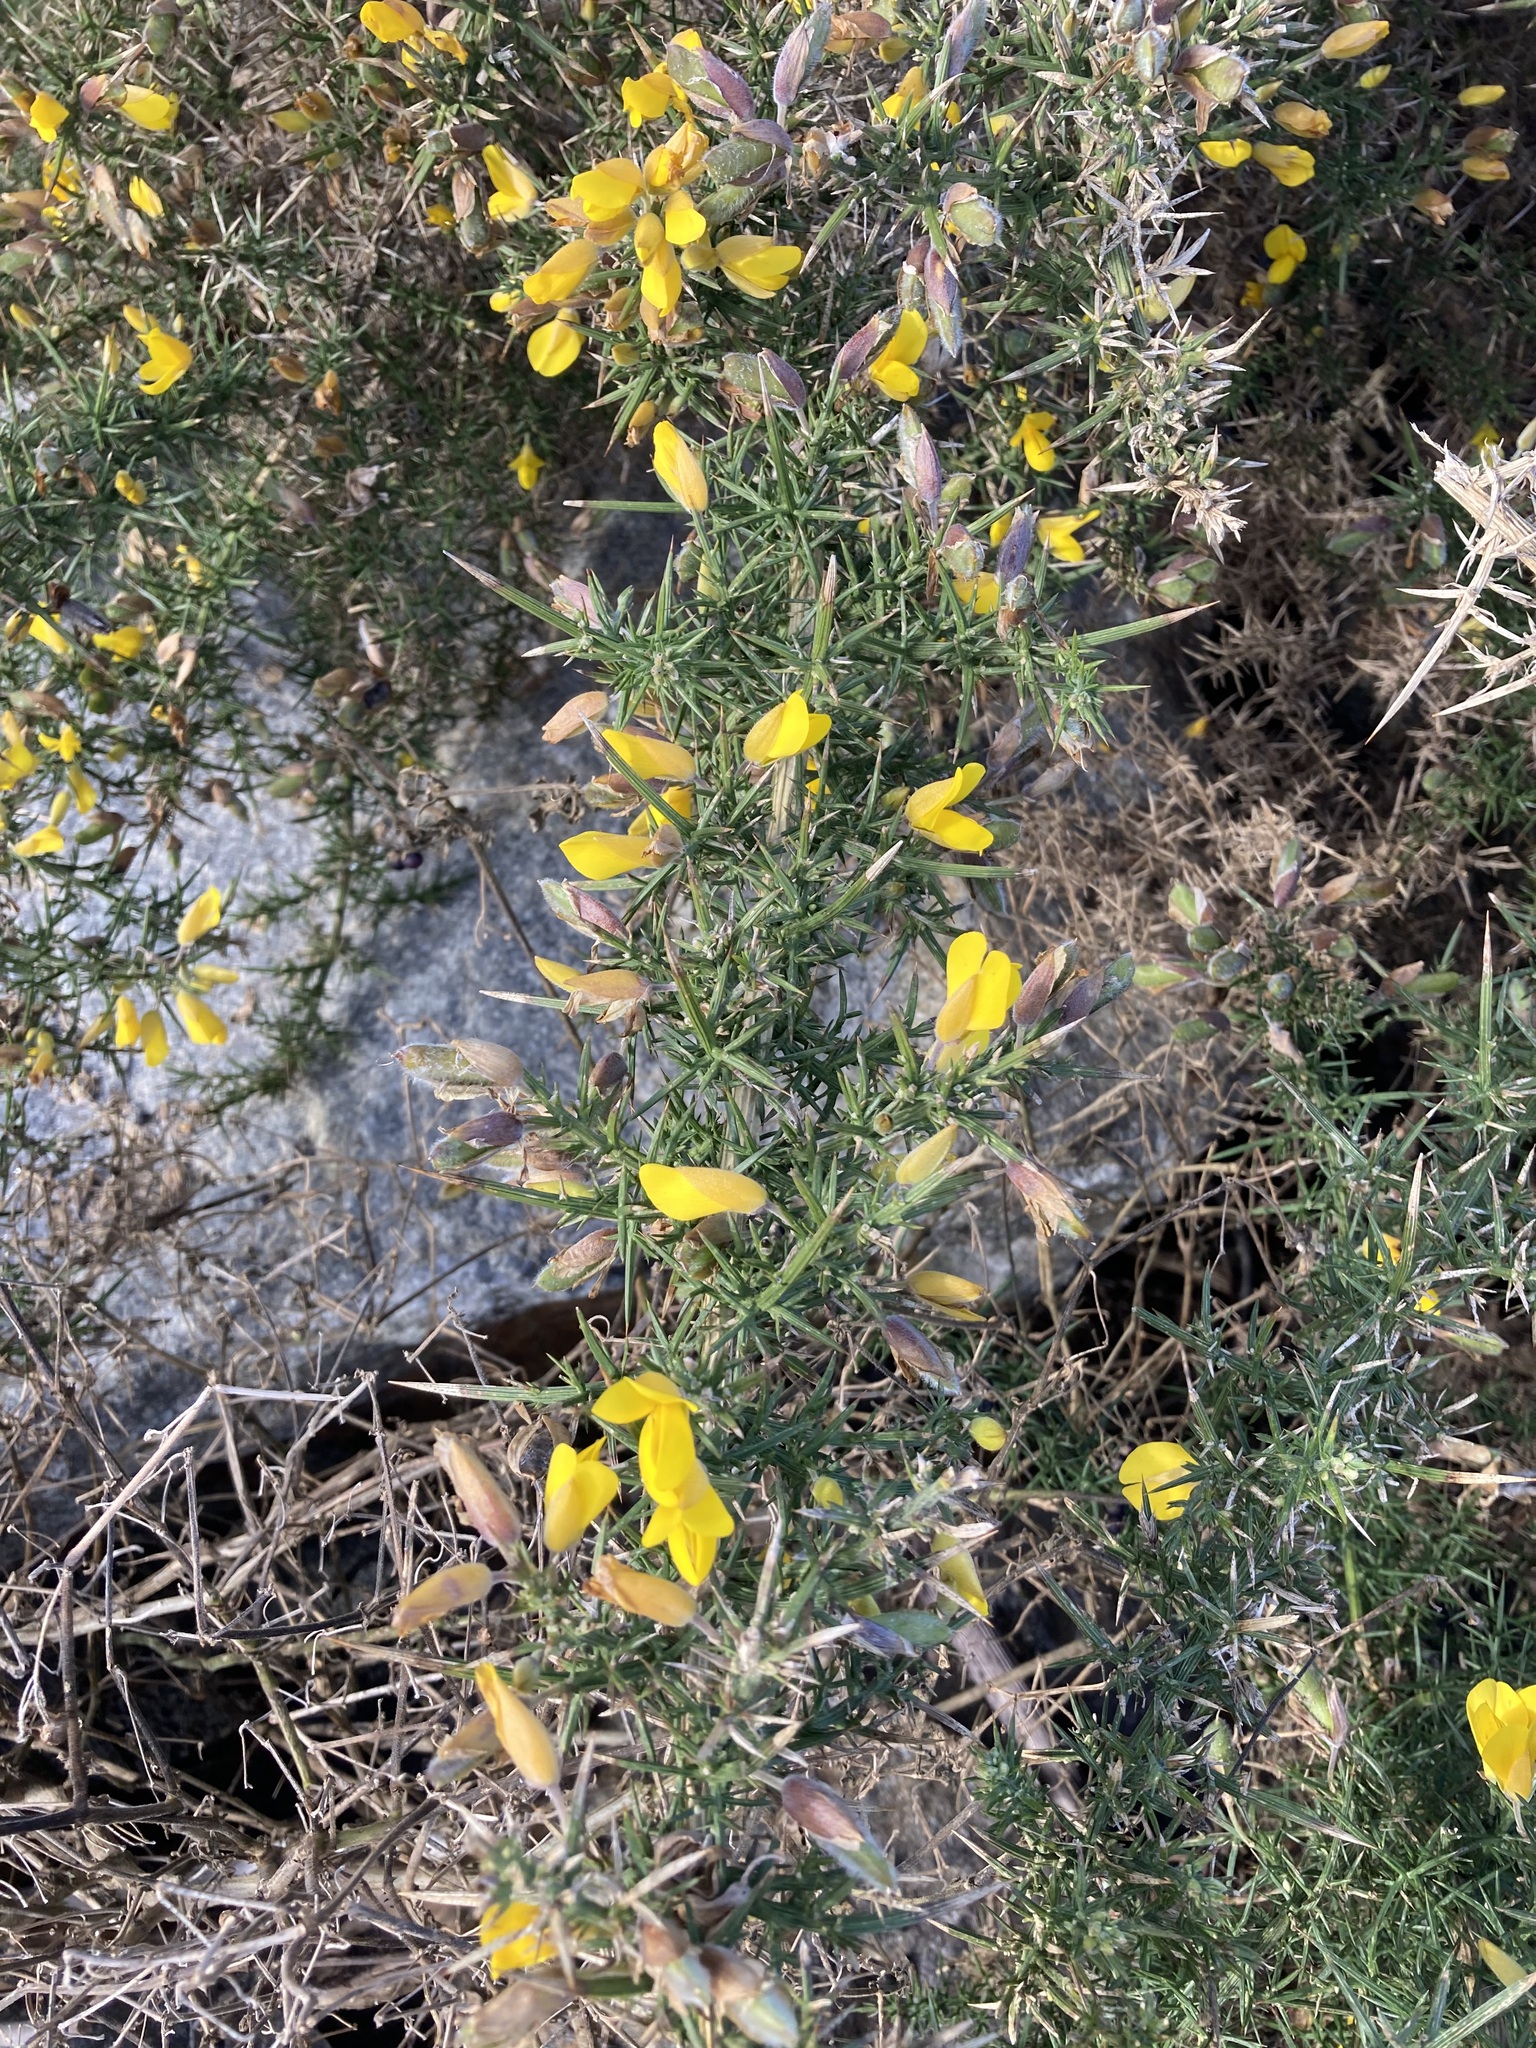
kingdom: Plantae
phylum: Tracheophyta
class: Magnoliopsida
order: Fabales
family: Fabaceae
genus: Ulex
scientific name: Ulex europaeus
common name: Common gorse
